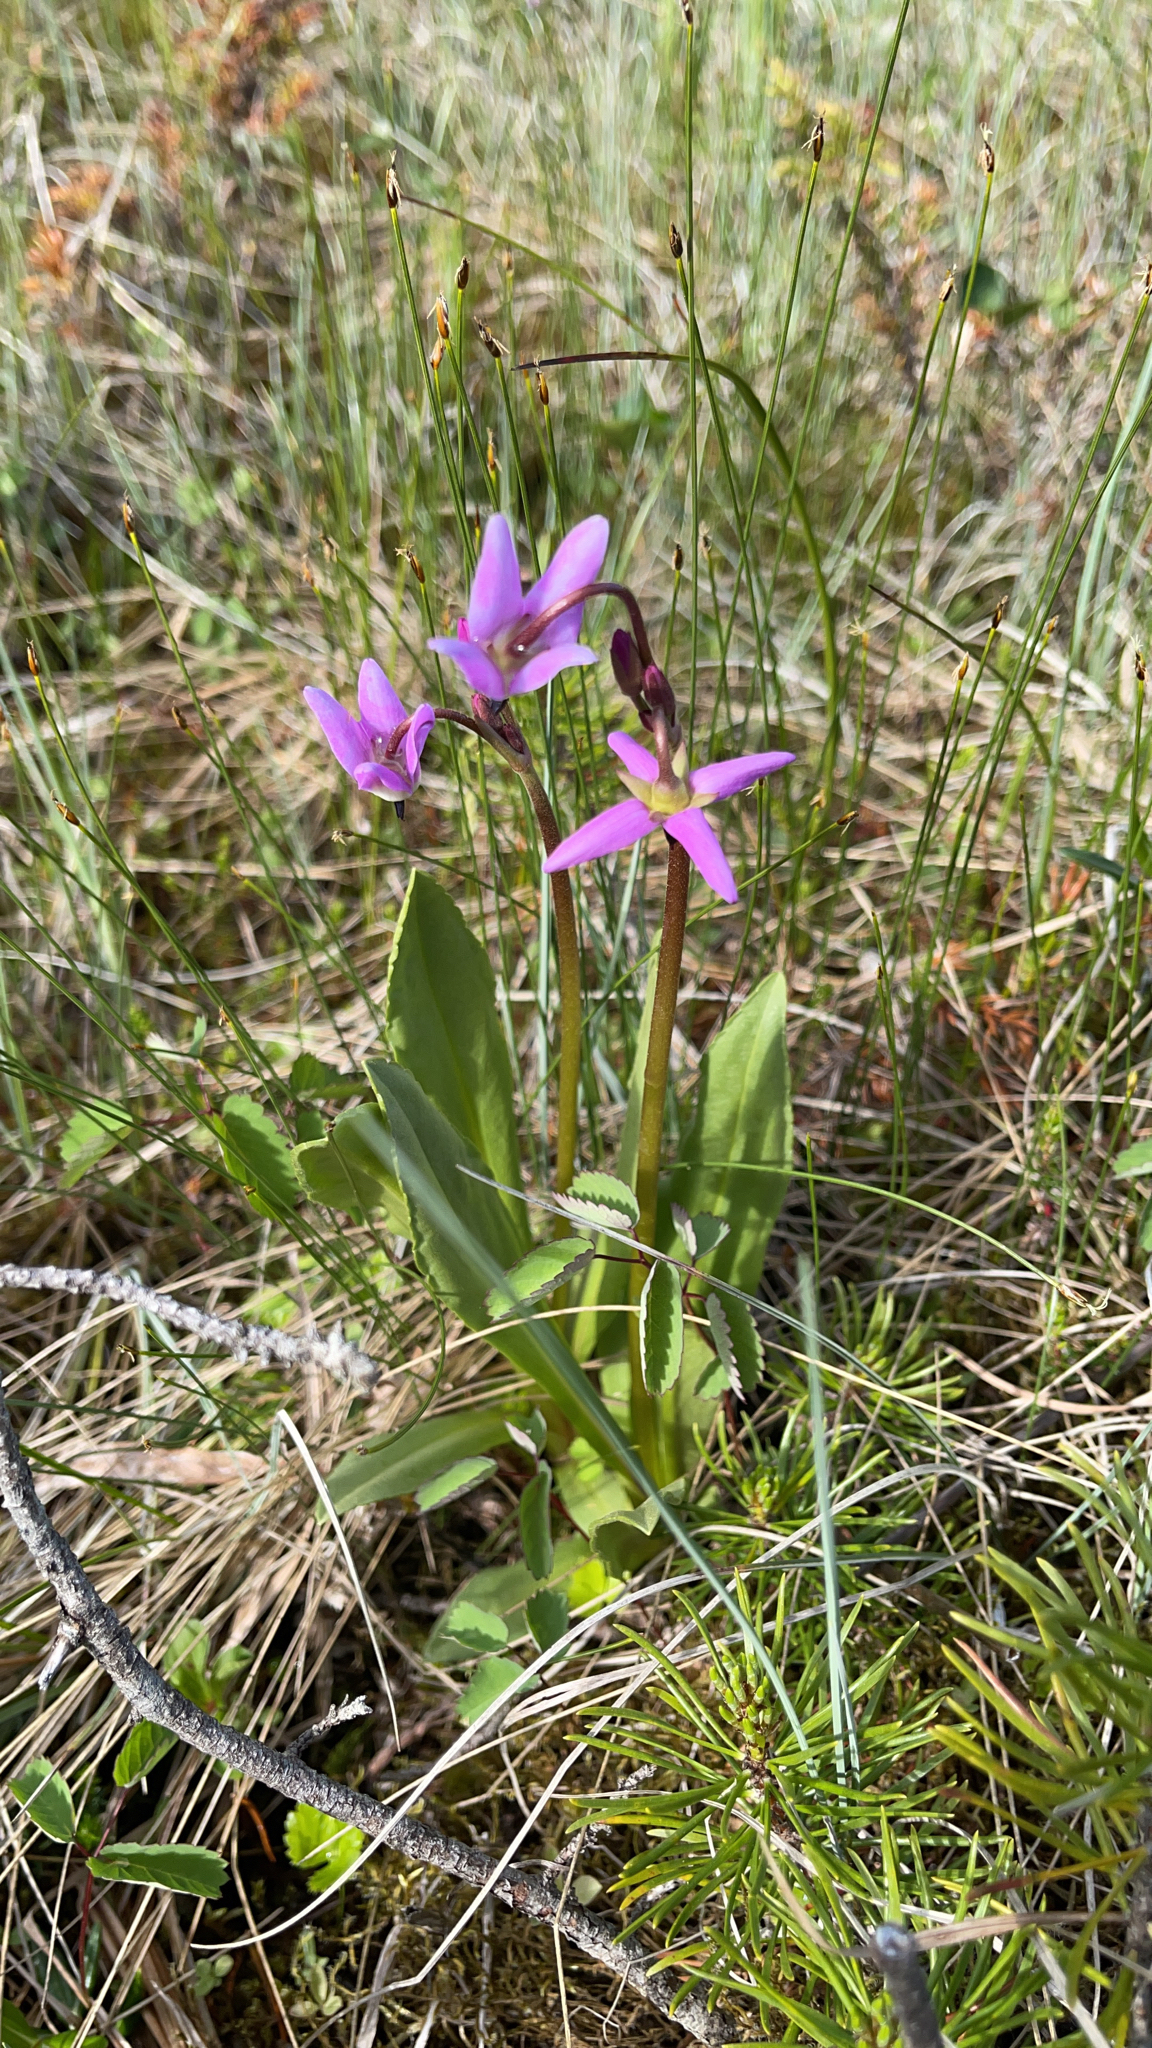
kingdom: Plantae
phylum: Tracheophyta
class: Magnoliopsida
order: Ericales
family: Primulaceae
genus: Dodecatheon
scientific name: Dodecatheon jeffreyanum
